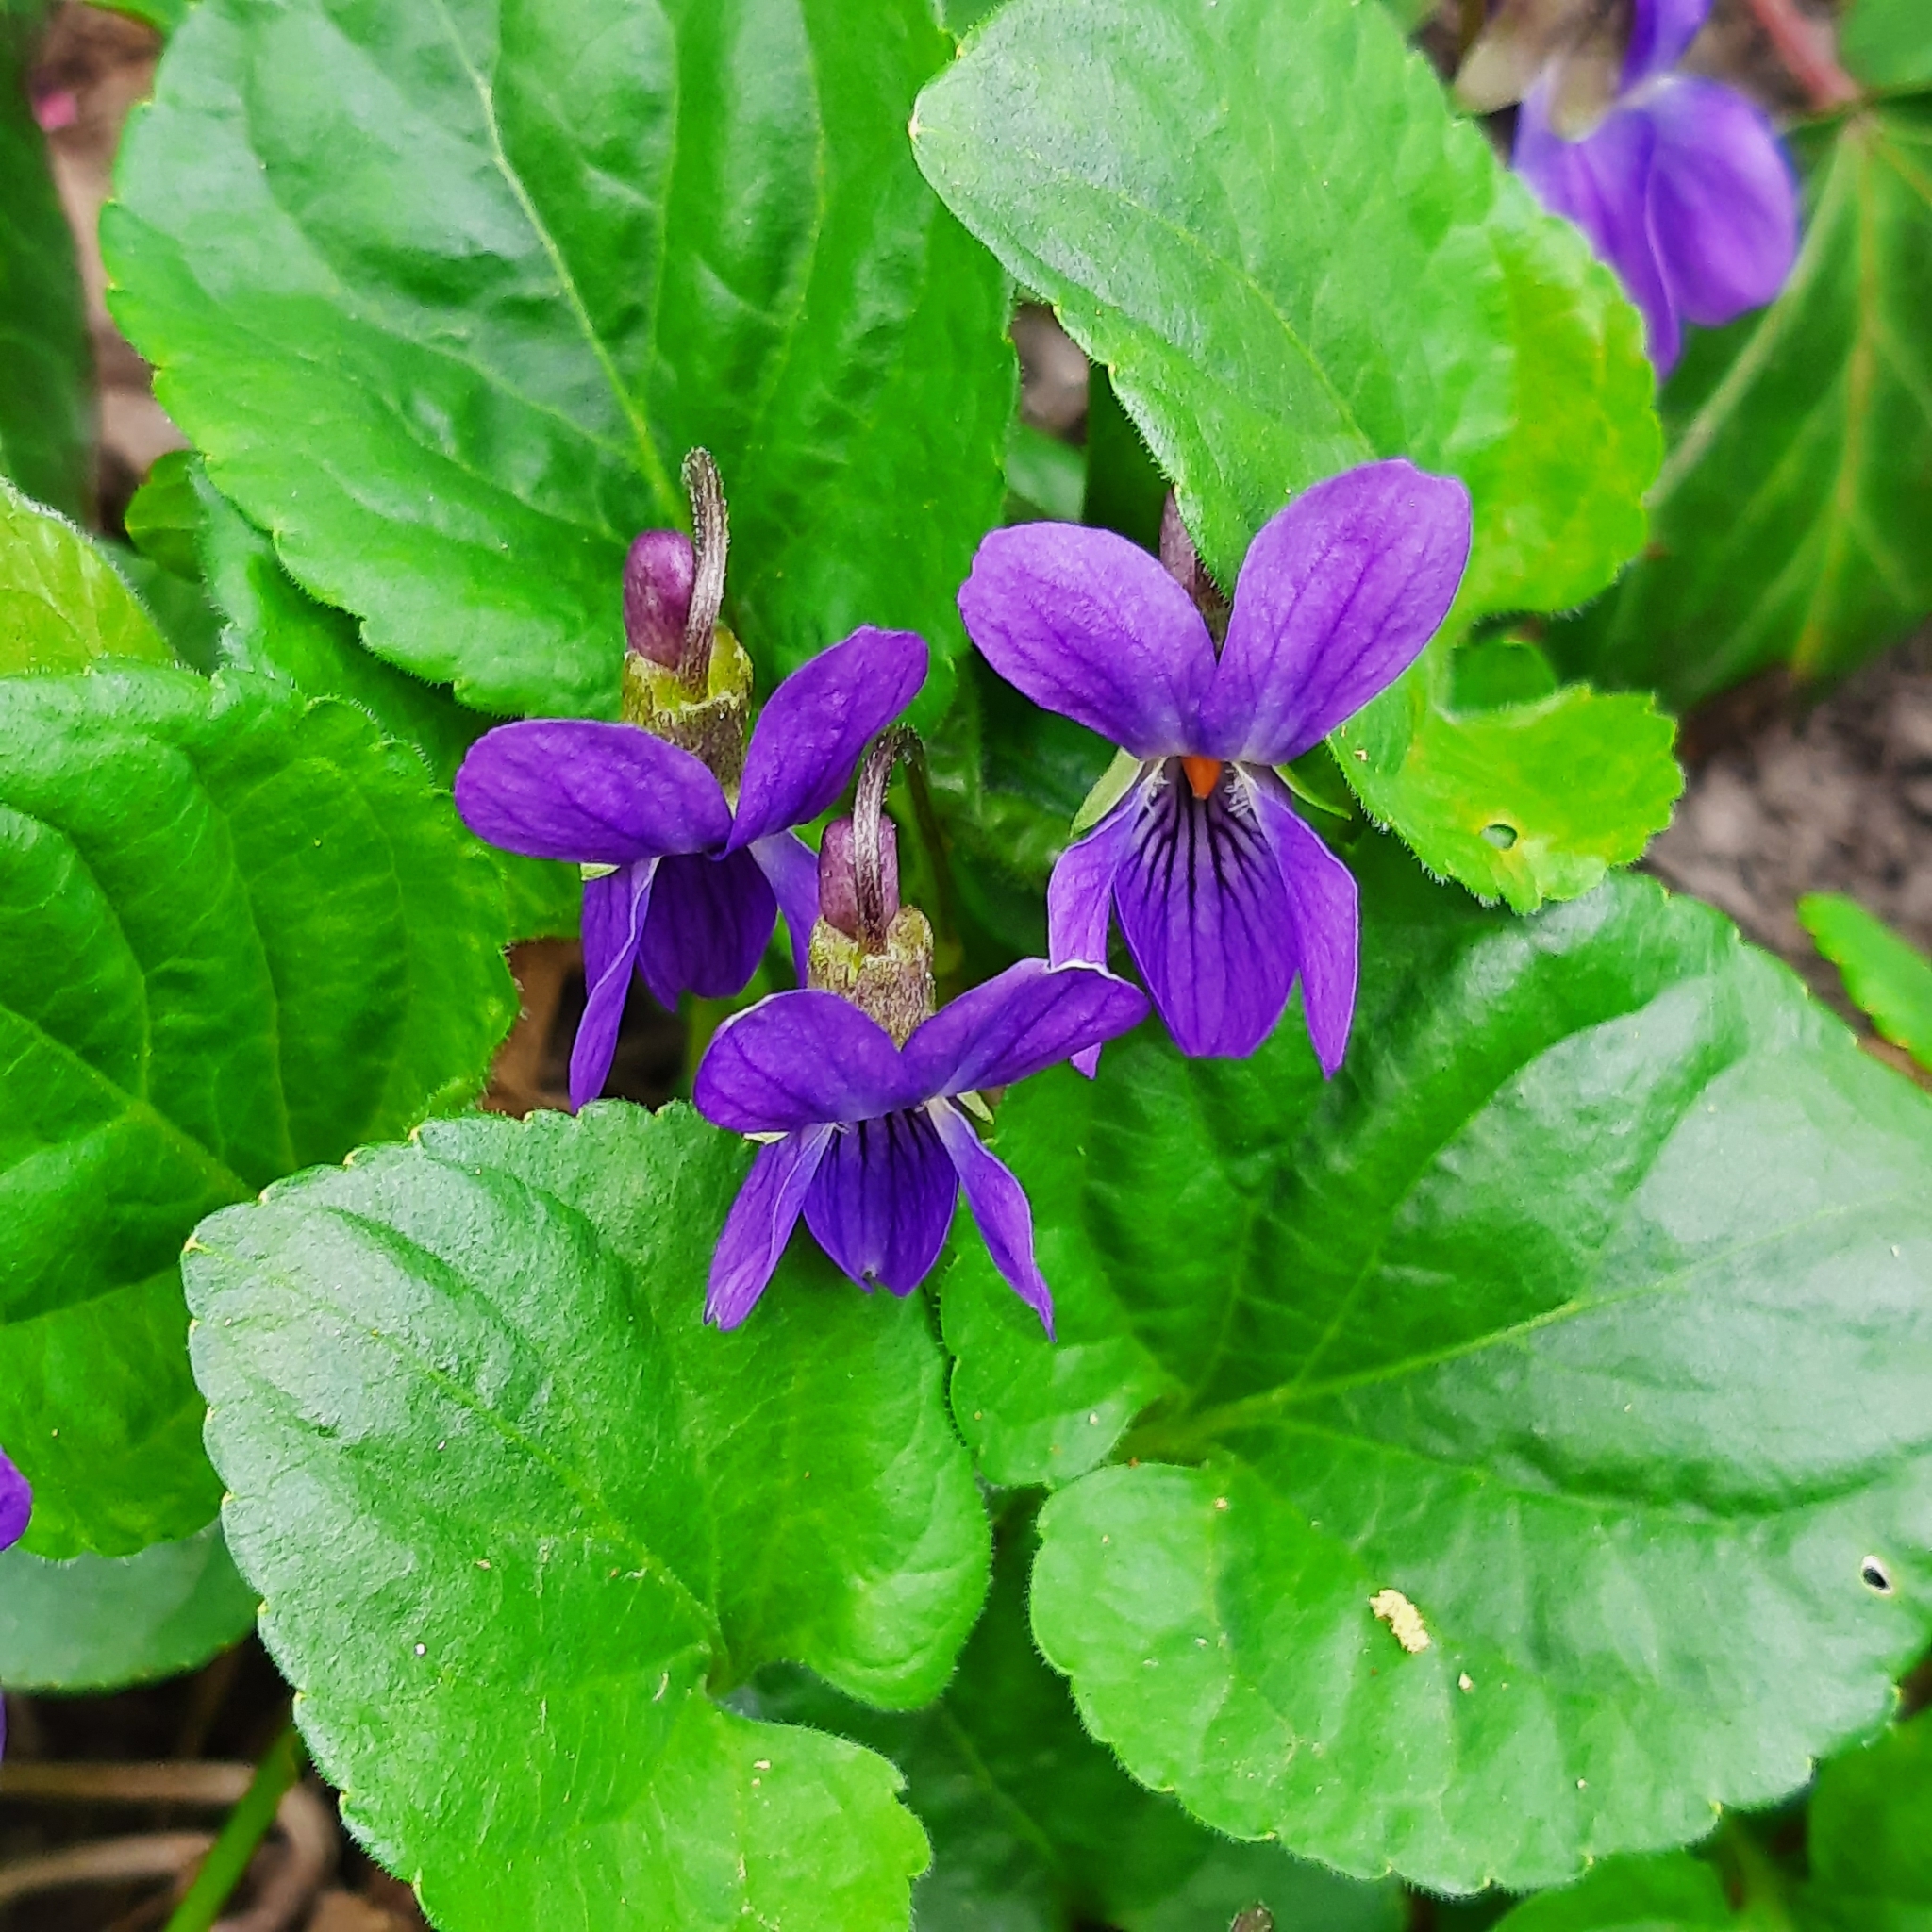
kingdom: Plantae
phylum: Tracheophyta
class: Magnoliopsida
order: Malpighiales
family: Violaceae
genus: Viola
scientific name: Viola odorata
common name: Sweet violet
